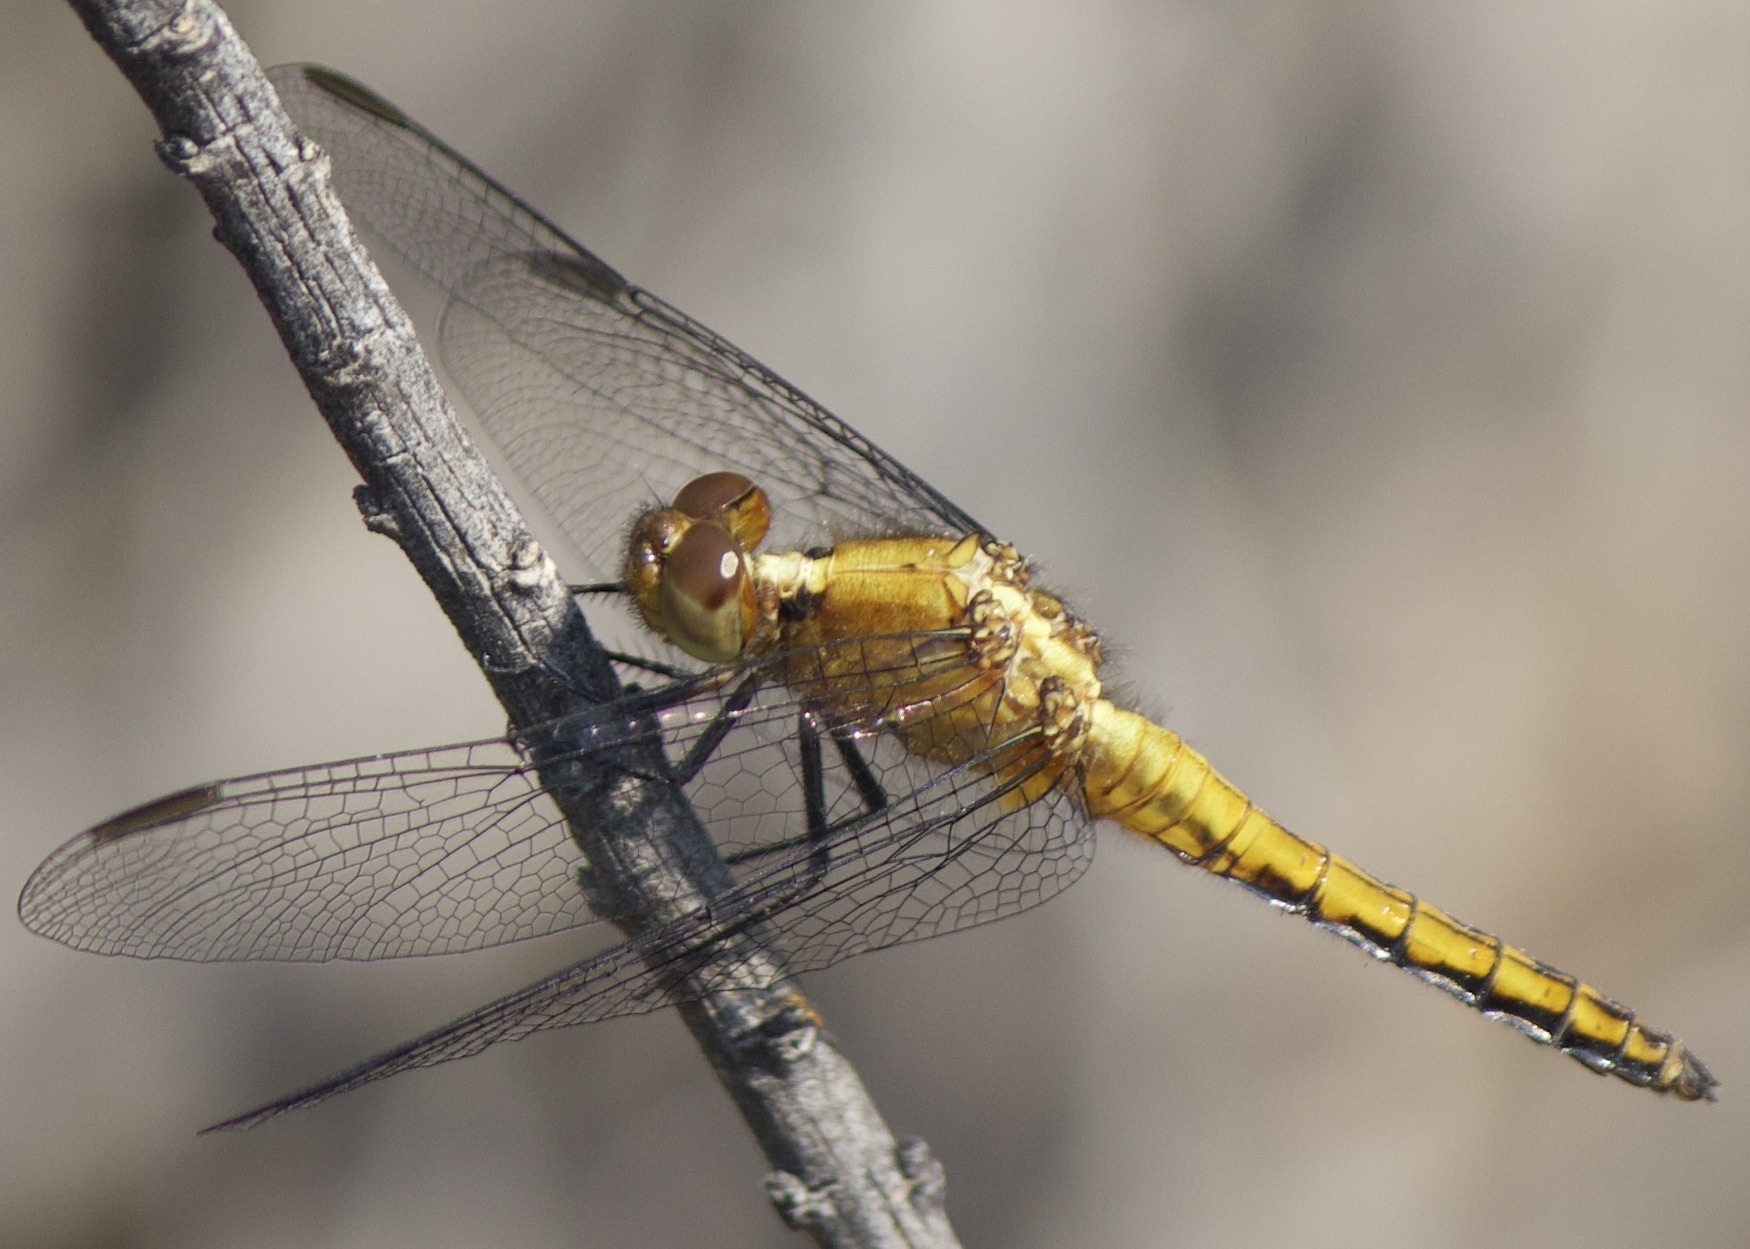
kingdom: Animalia
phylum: Arthropoda
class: Insecta
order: Odonata
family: Libellulidae
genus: Erythrodiplax
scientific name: Erythrodiplax connata
